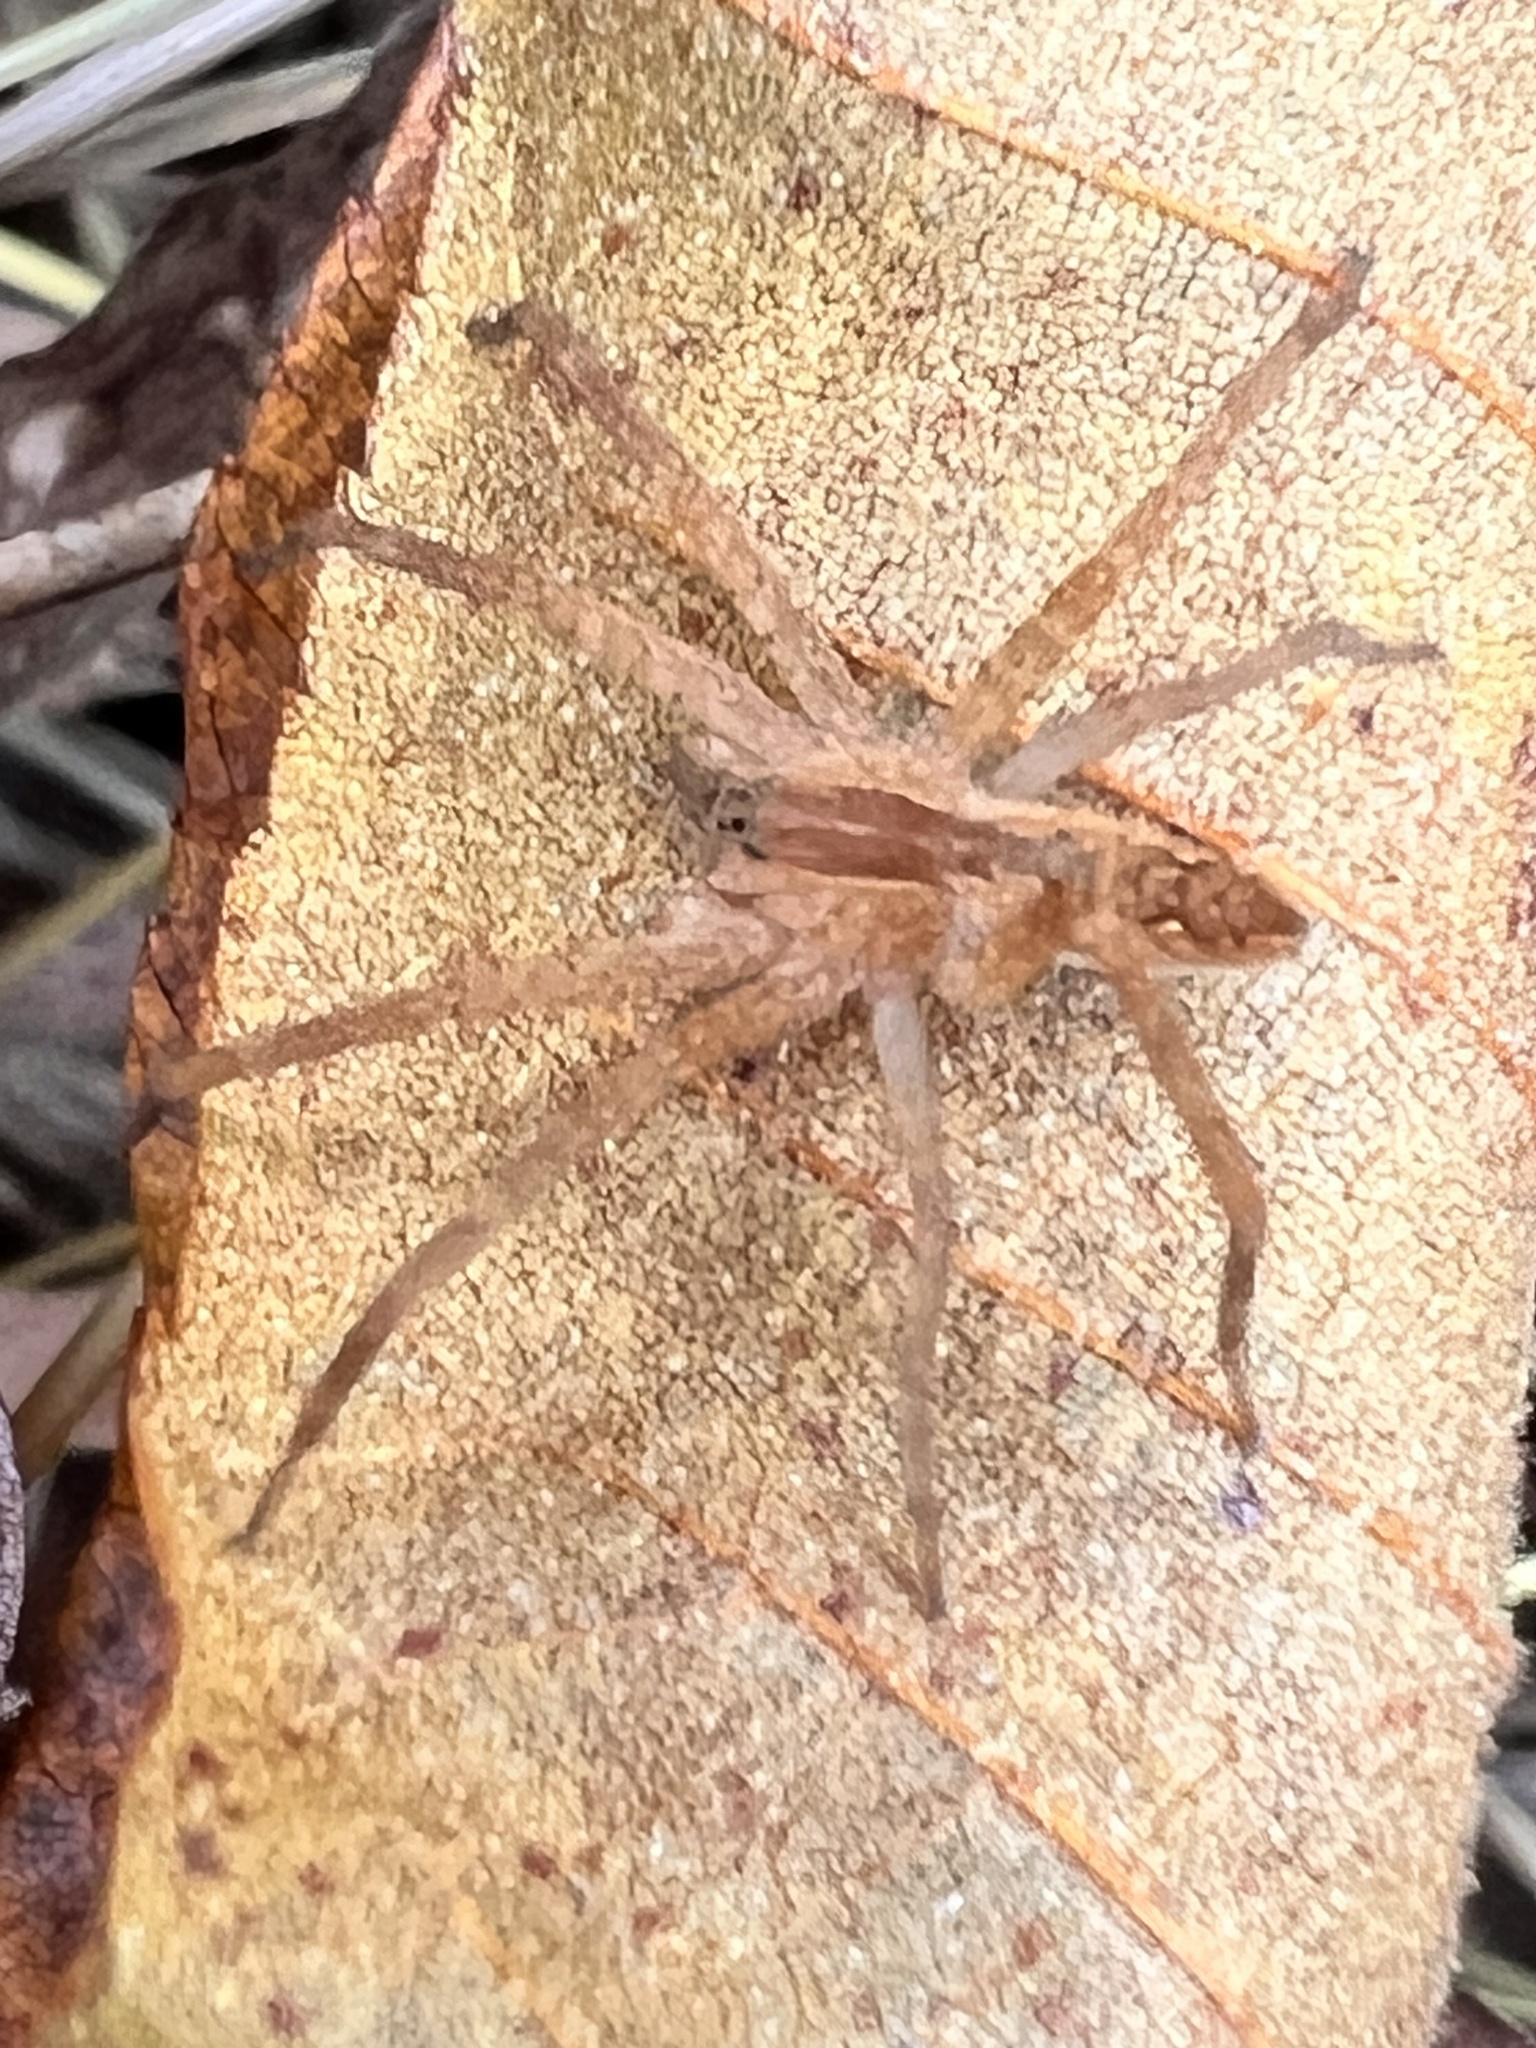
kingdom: Animalia
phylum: Arthropoda
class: Arachnida
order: Araneae
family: Pisauridae
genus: Pisaurina
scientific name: Pisaurina mira
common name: American nursery web spider
